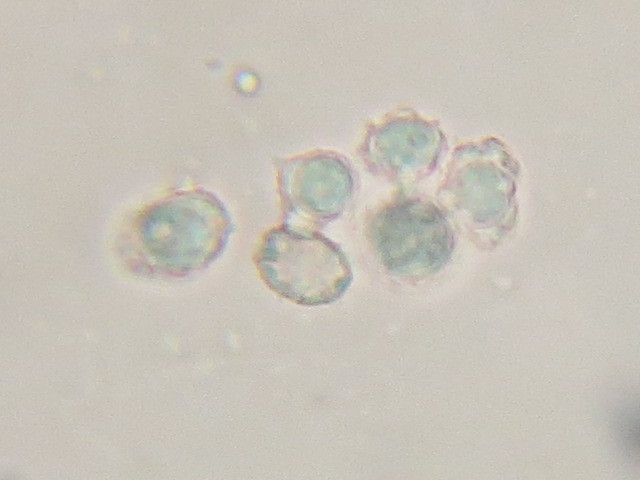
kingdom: Fungi
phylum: Basidiomycota
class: Agaricomycetes
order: Russulales
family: Russulaceae
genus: Lactarius
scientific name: Lactarius rufus
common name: Rufous milk-cap
